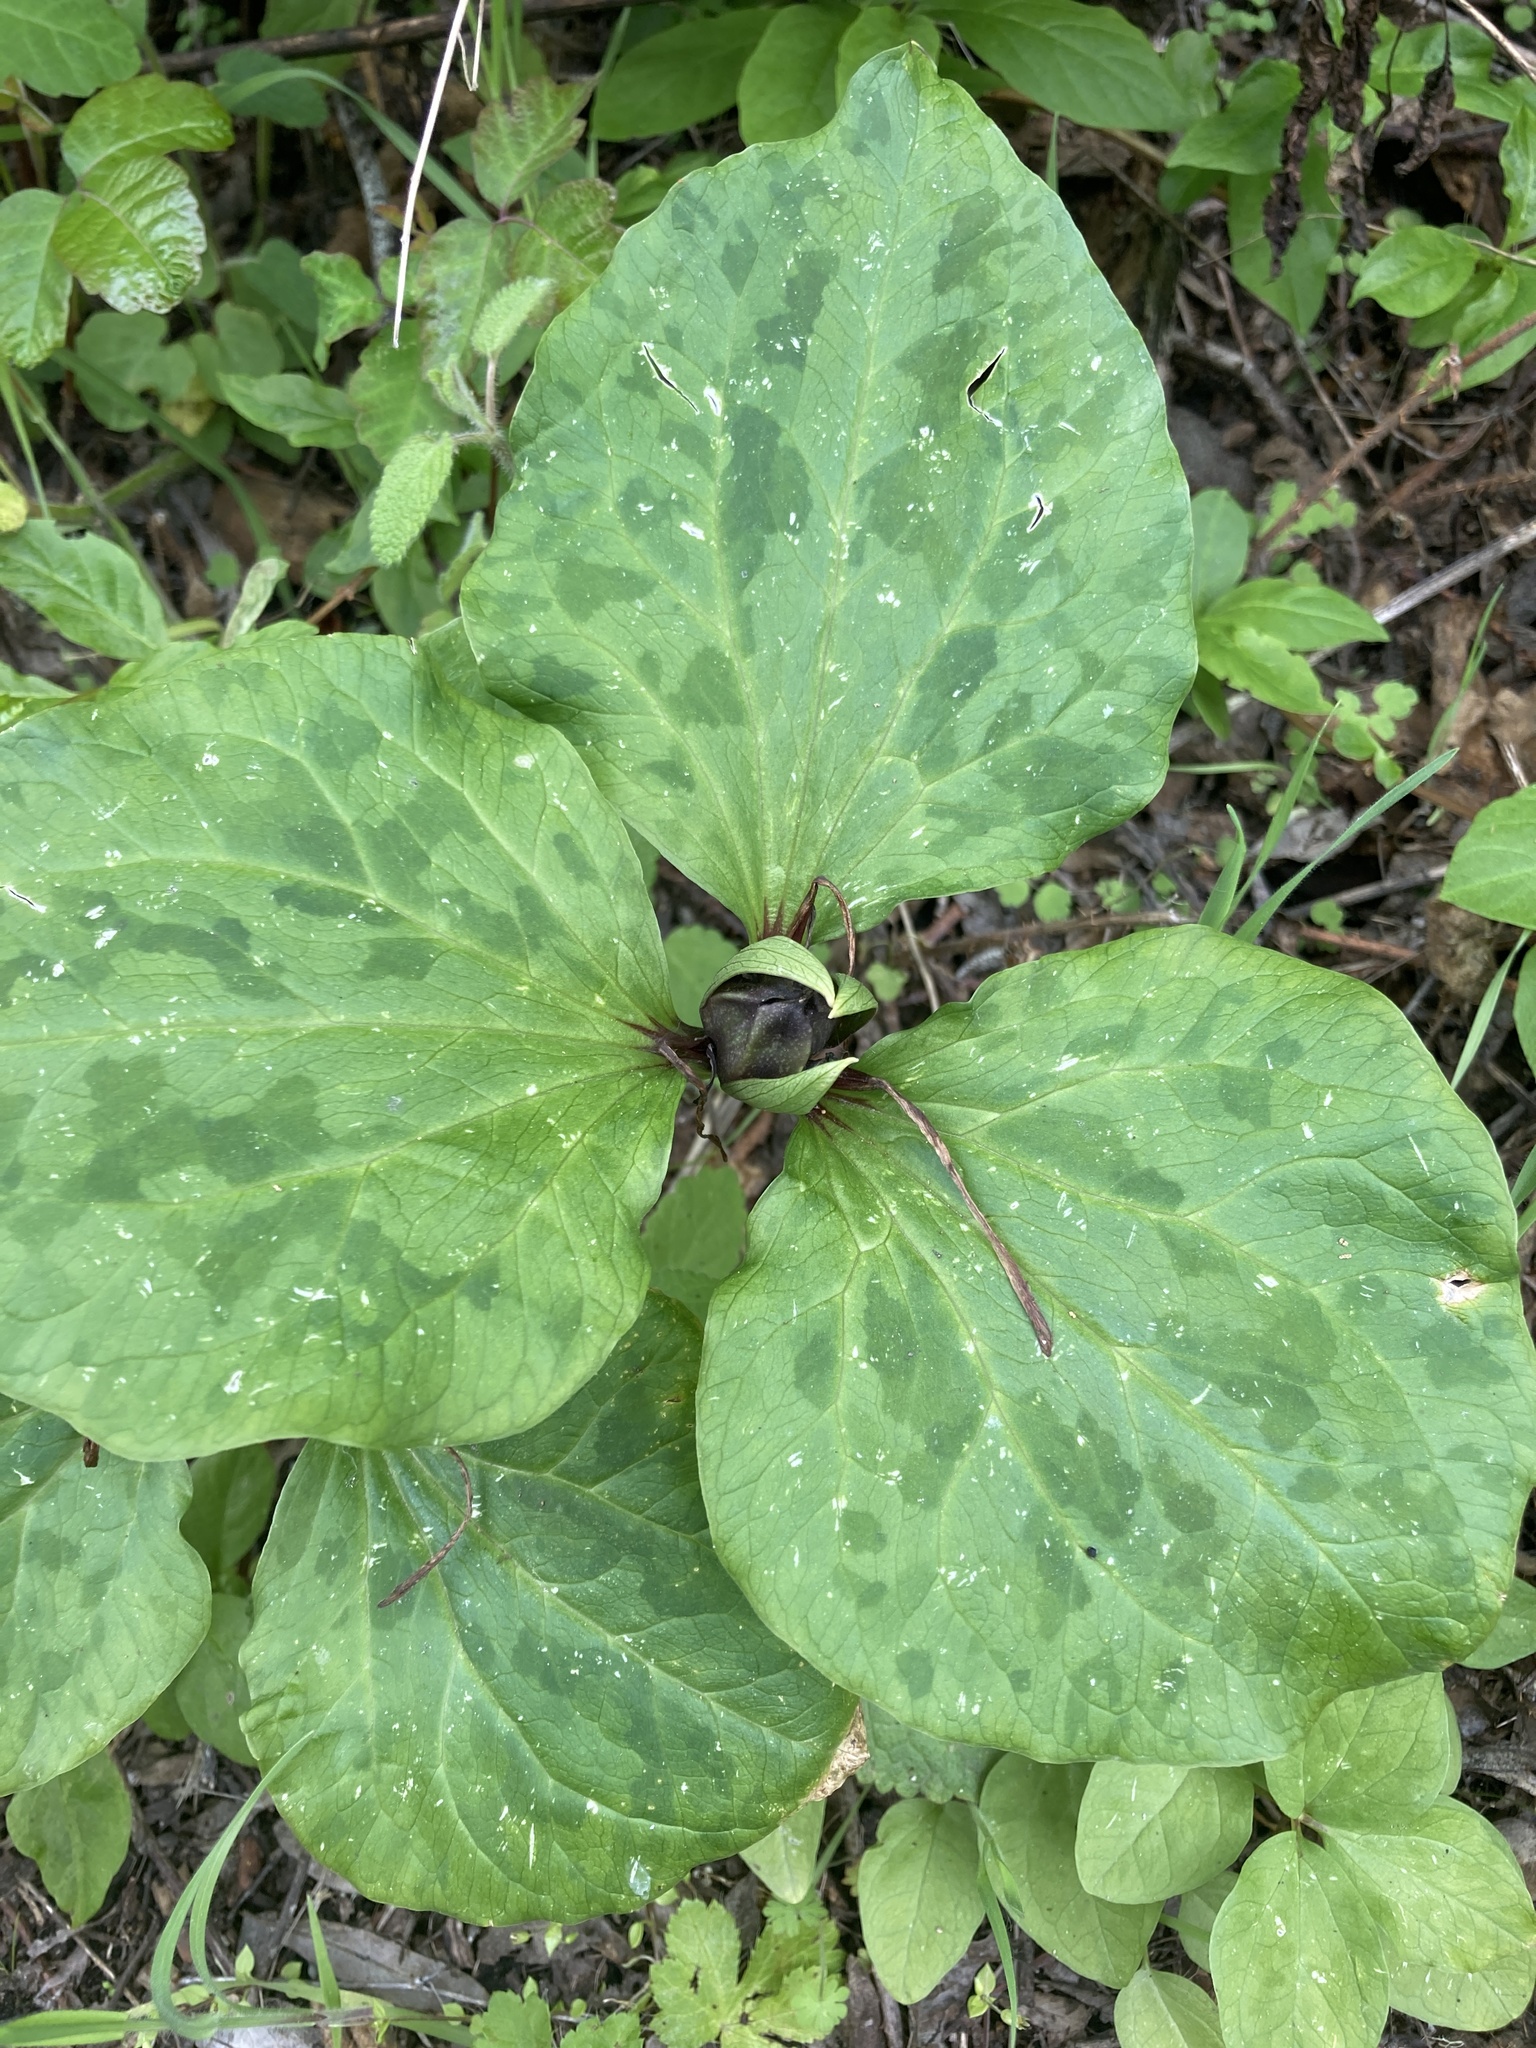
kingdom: Plantae
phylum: Tracheophyta
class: Liliopsida
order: Liliales
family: Melanthiaceae
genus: Trillium
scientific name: Trillium angustipetalum
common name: Narrow-petaled trillium
